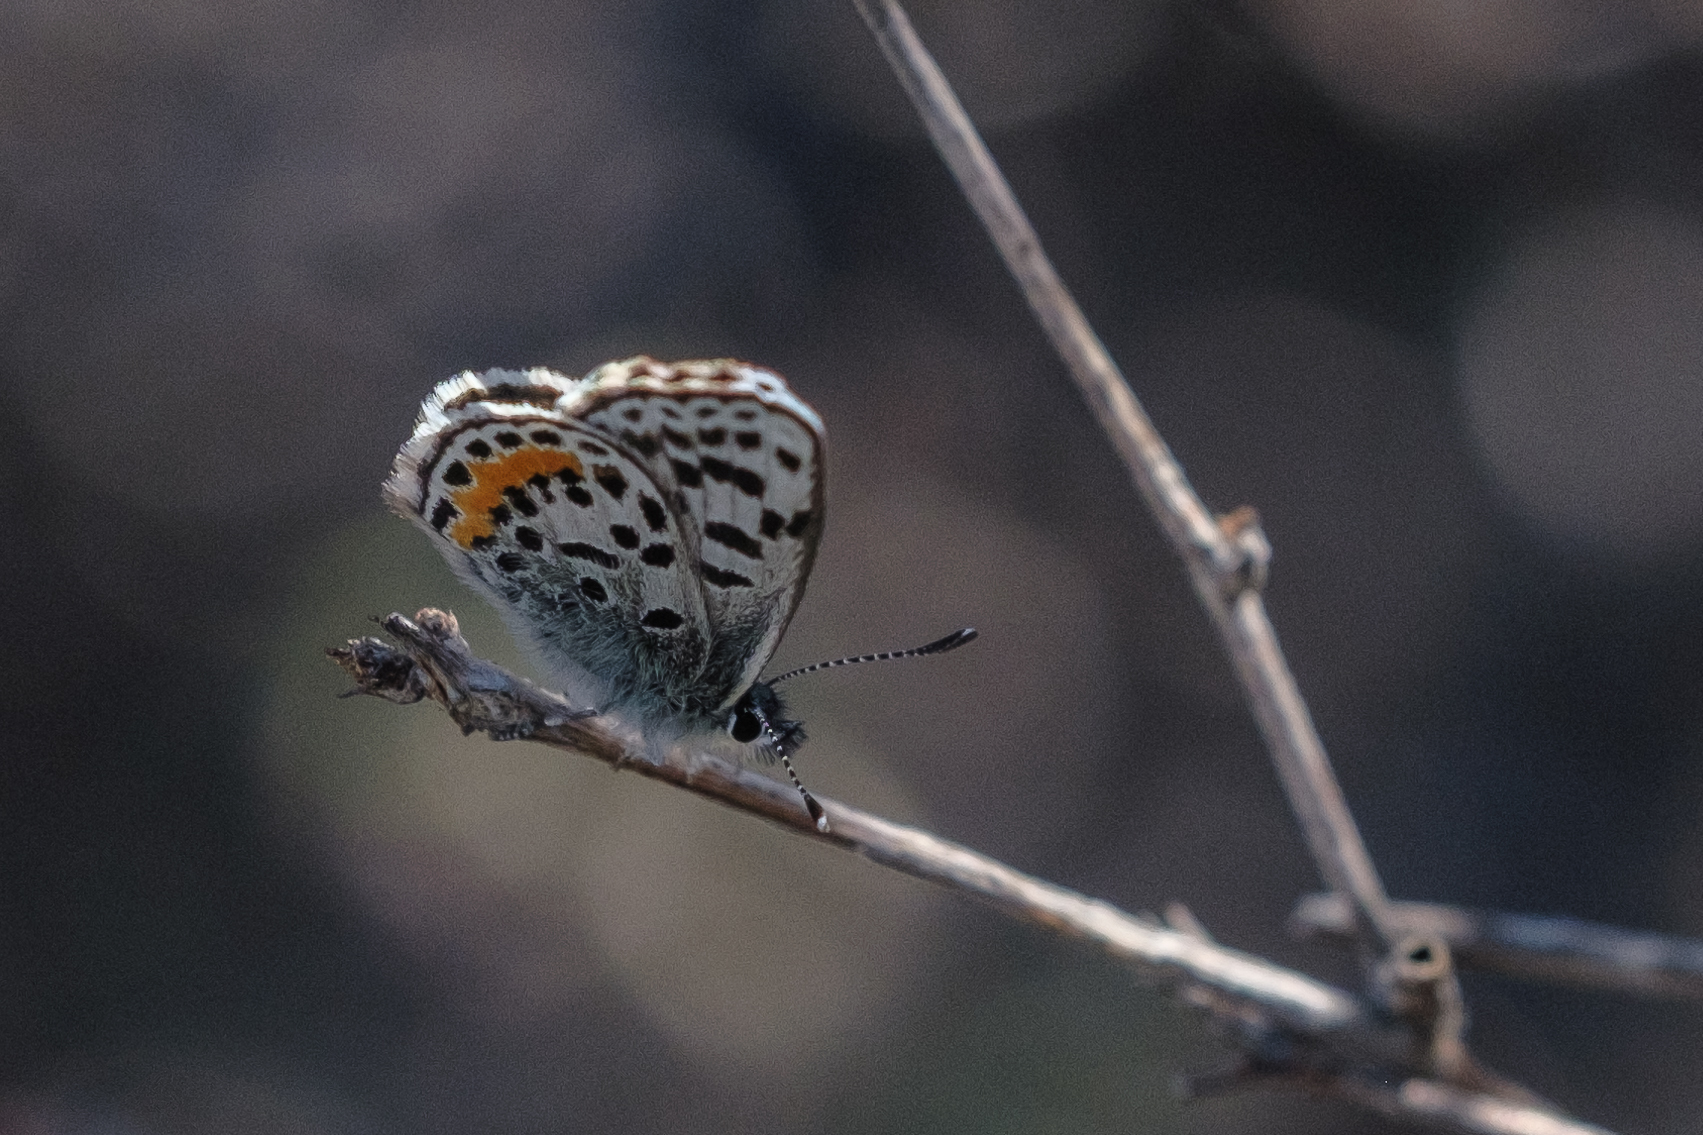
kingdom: Animalia
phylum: Arthropoda
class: Insecta
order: Lepidoptera
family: Lycaenidae
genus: Euphilotes
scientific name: Euphilotes battoides
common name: Square-spotted blue
